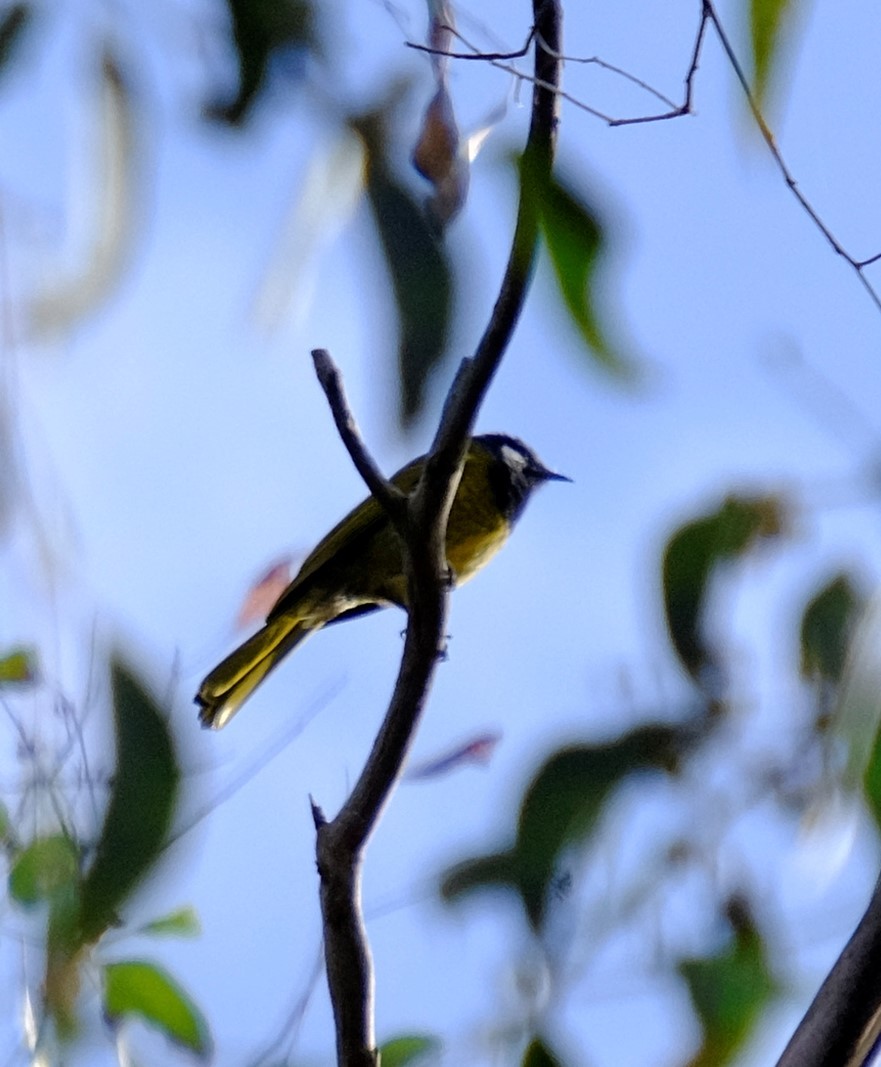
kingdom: Animalia
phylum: Chordata
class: Aves
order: Passeriformes
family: Meliphagidae
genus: Nesoptilotis
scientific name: Nesoptilotis leucotis
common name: White-eared honeyeater
